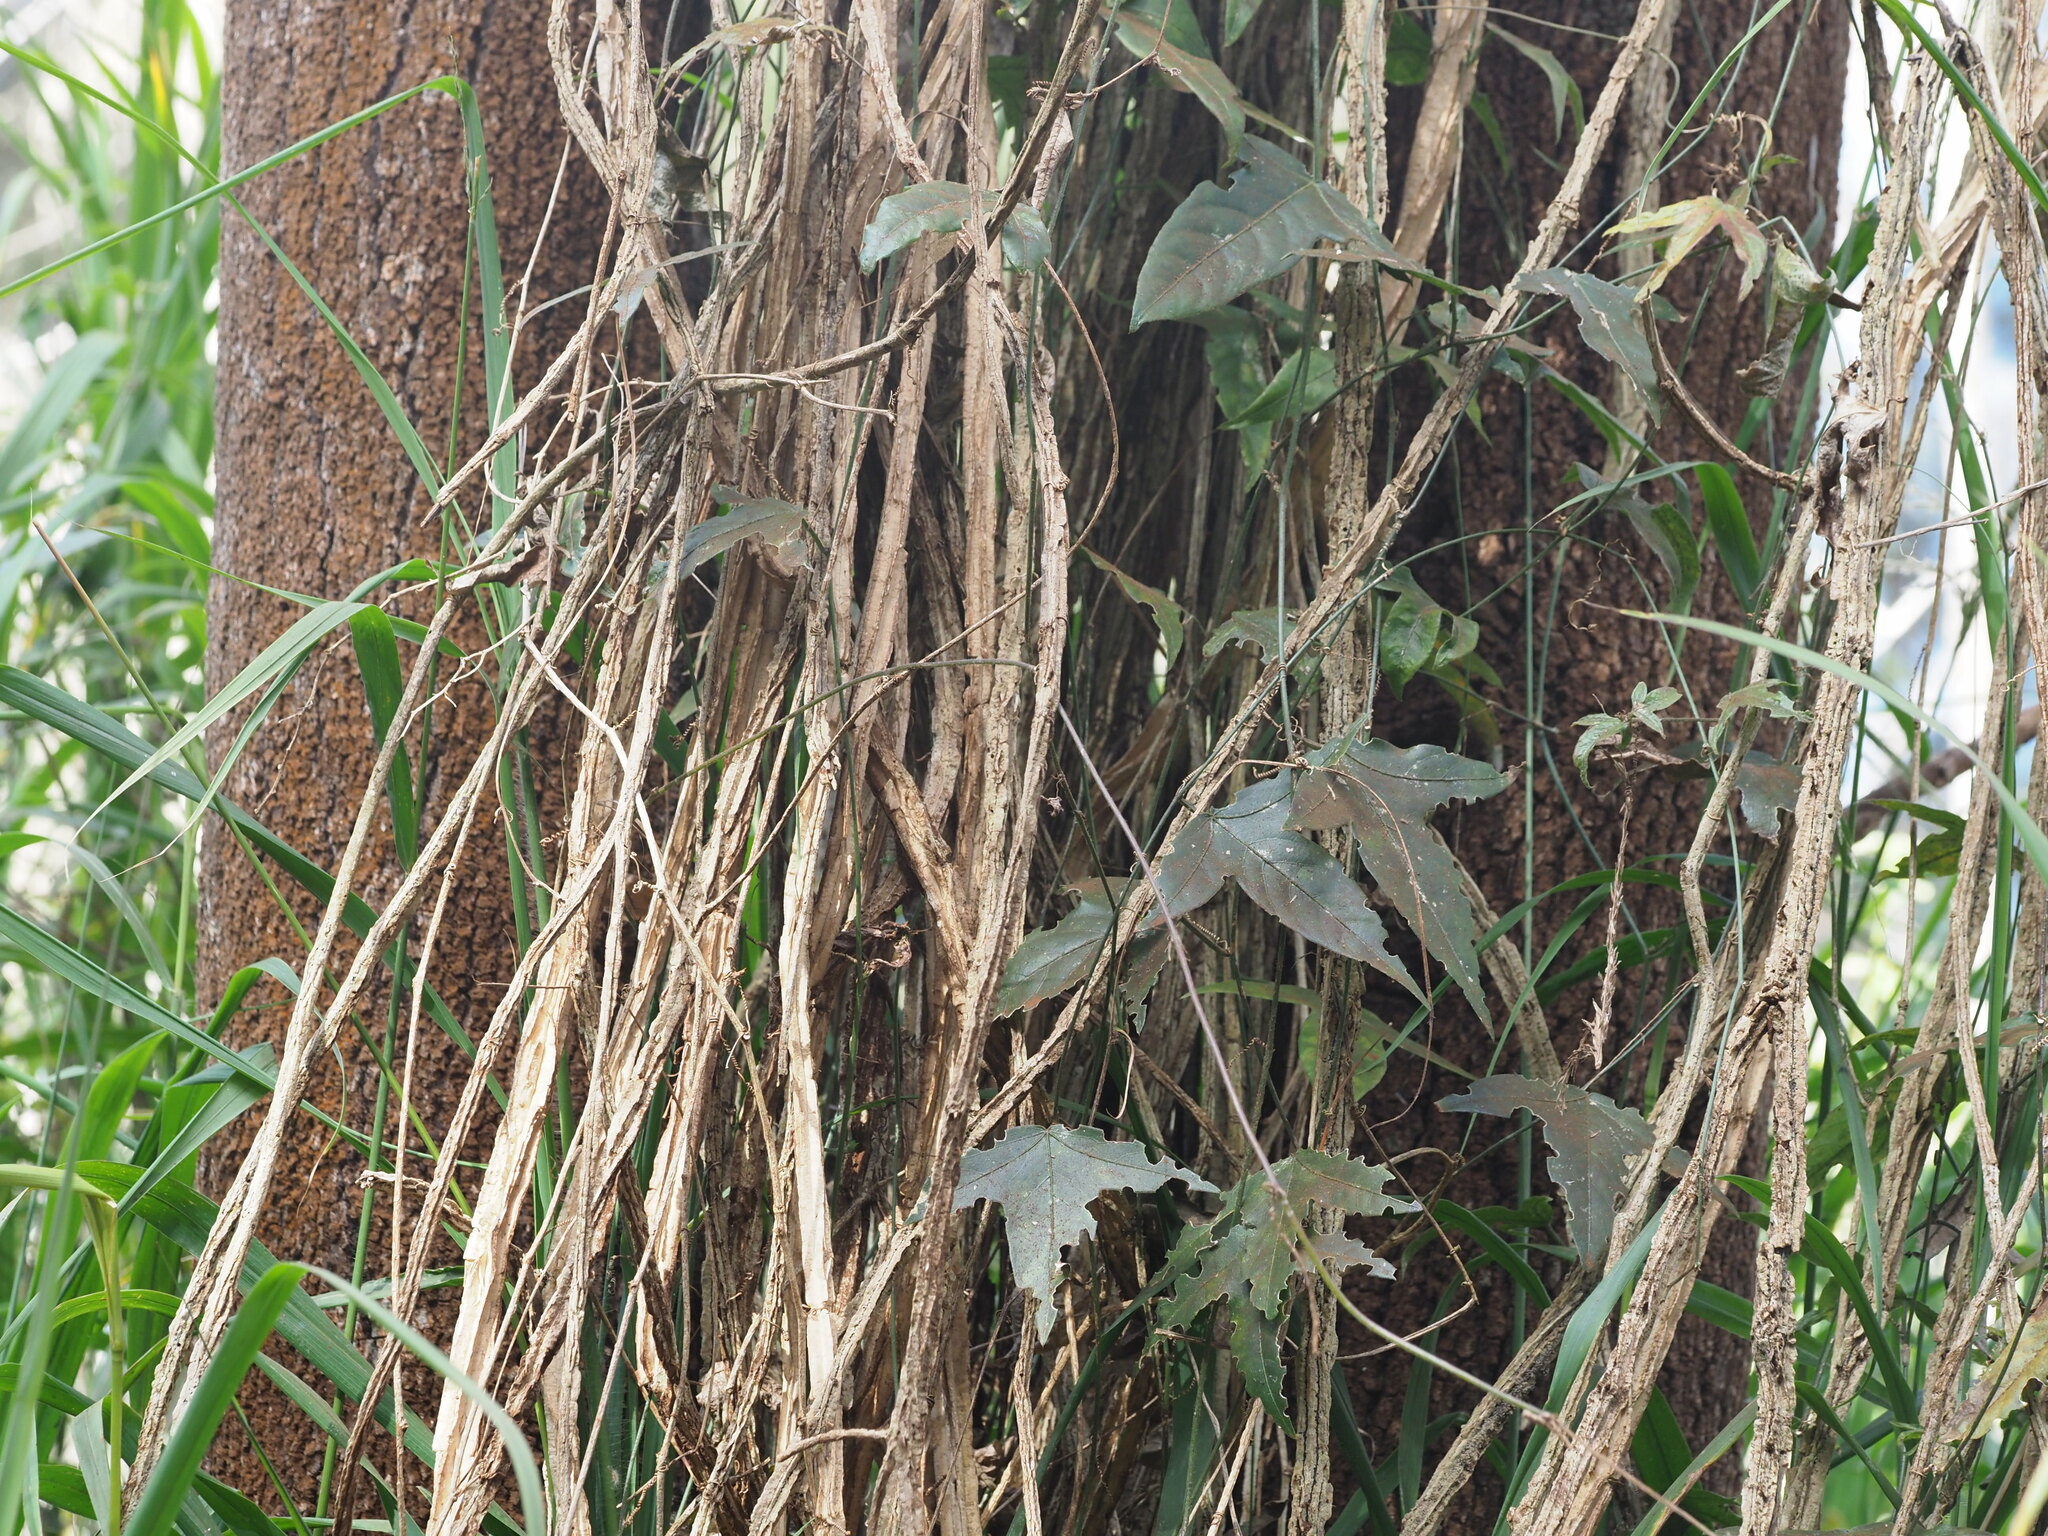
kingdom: Plantae
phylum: Tracheophyta
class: Magnoliopsida
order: Malpighiales
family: Passifloraceae
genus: Passiflora
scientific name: Passiflora suberosa
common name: Wild passionfruit
